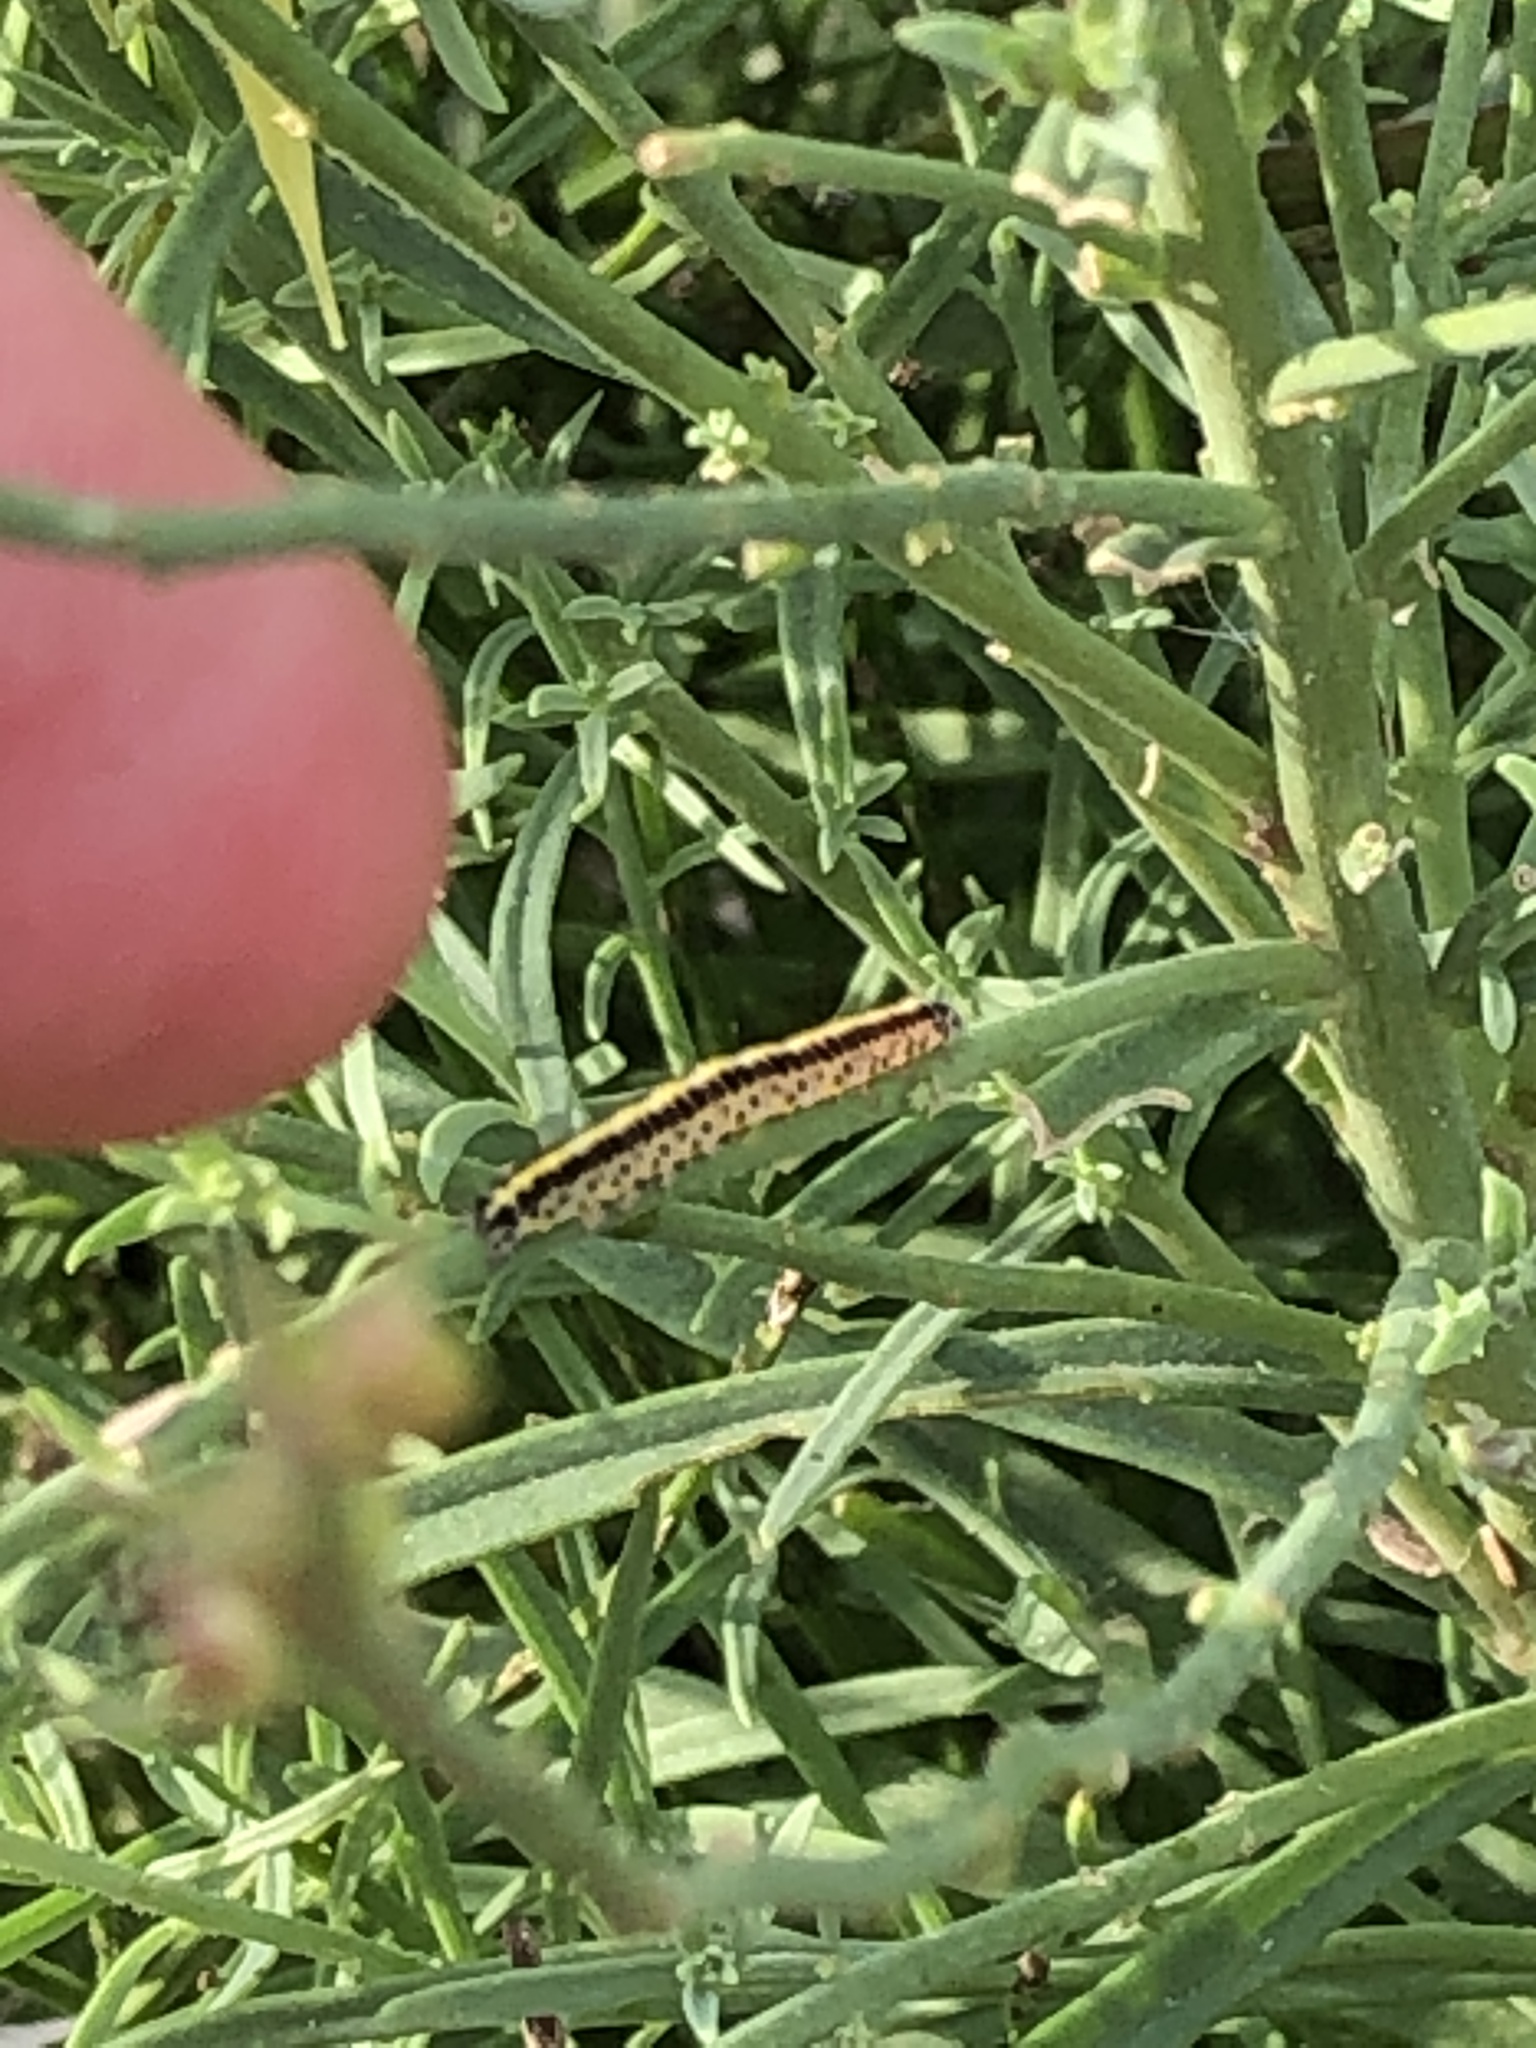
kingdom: Animalia
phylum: Arthropoda
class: Insecta
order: Lepidoptera
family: Noctuidae
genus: Calophasia
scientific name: Calophasia lunula
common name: Toadflax brocade
